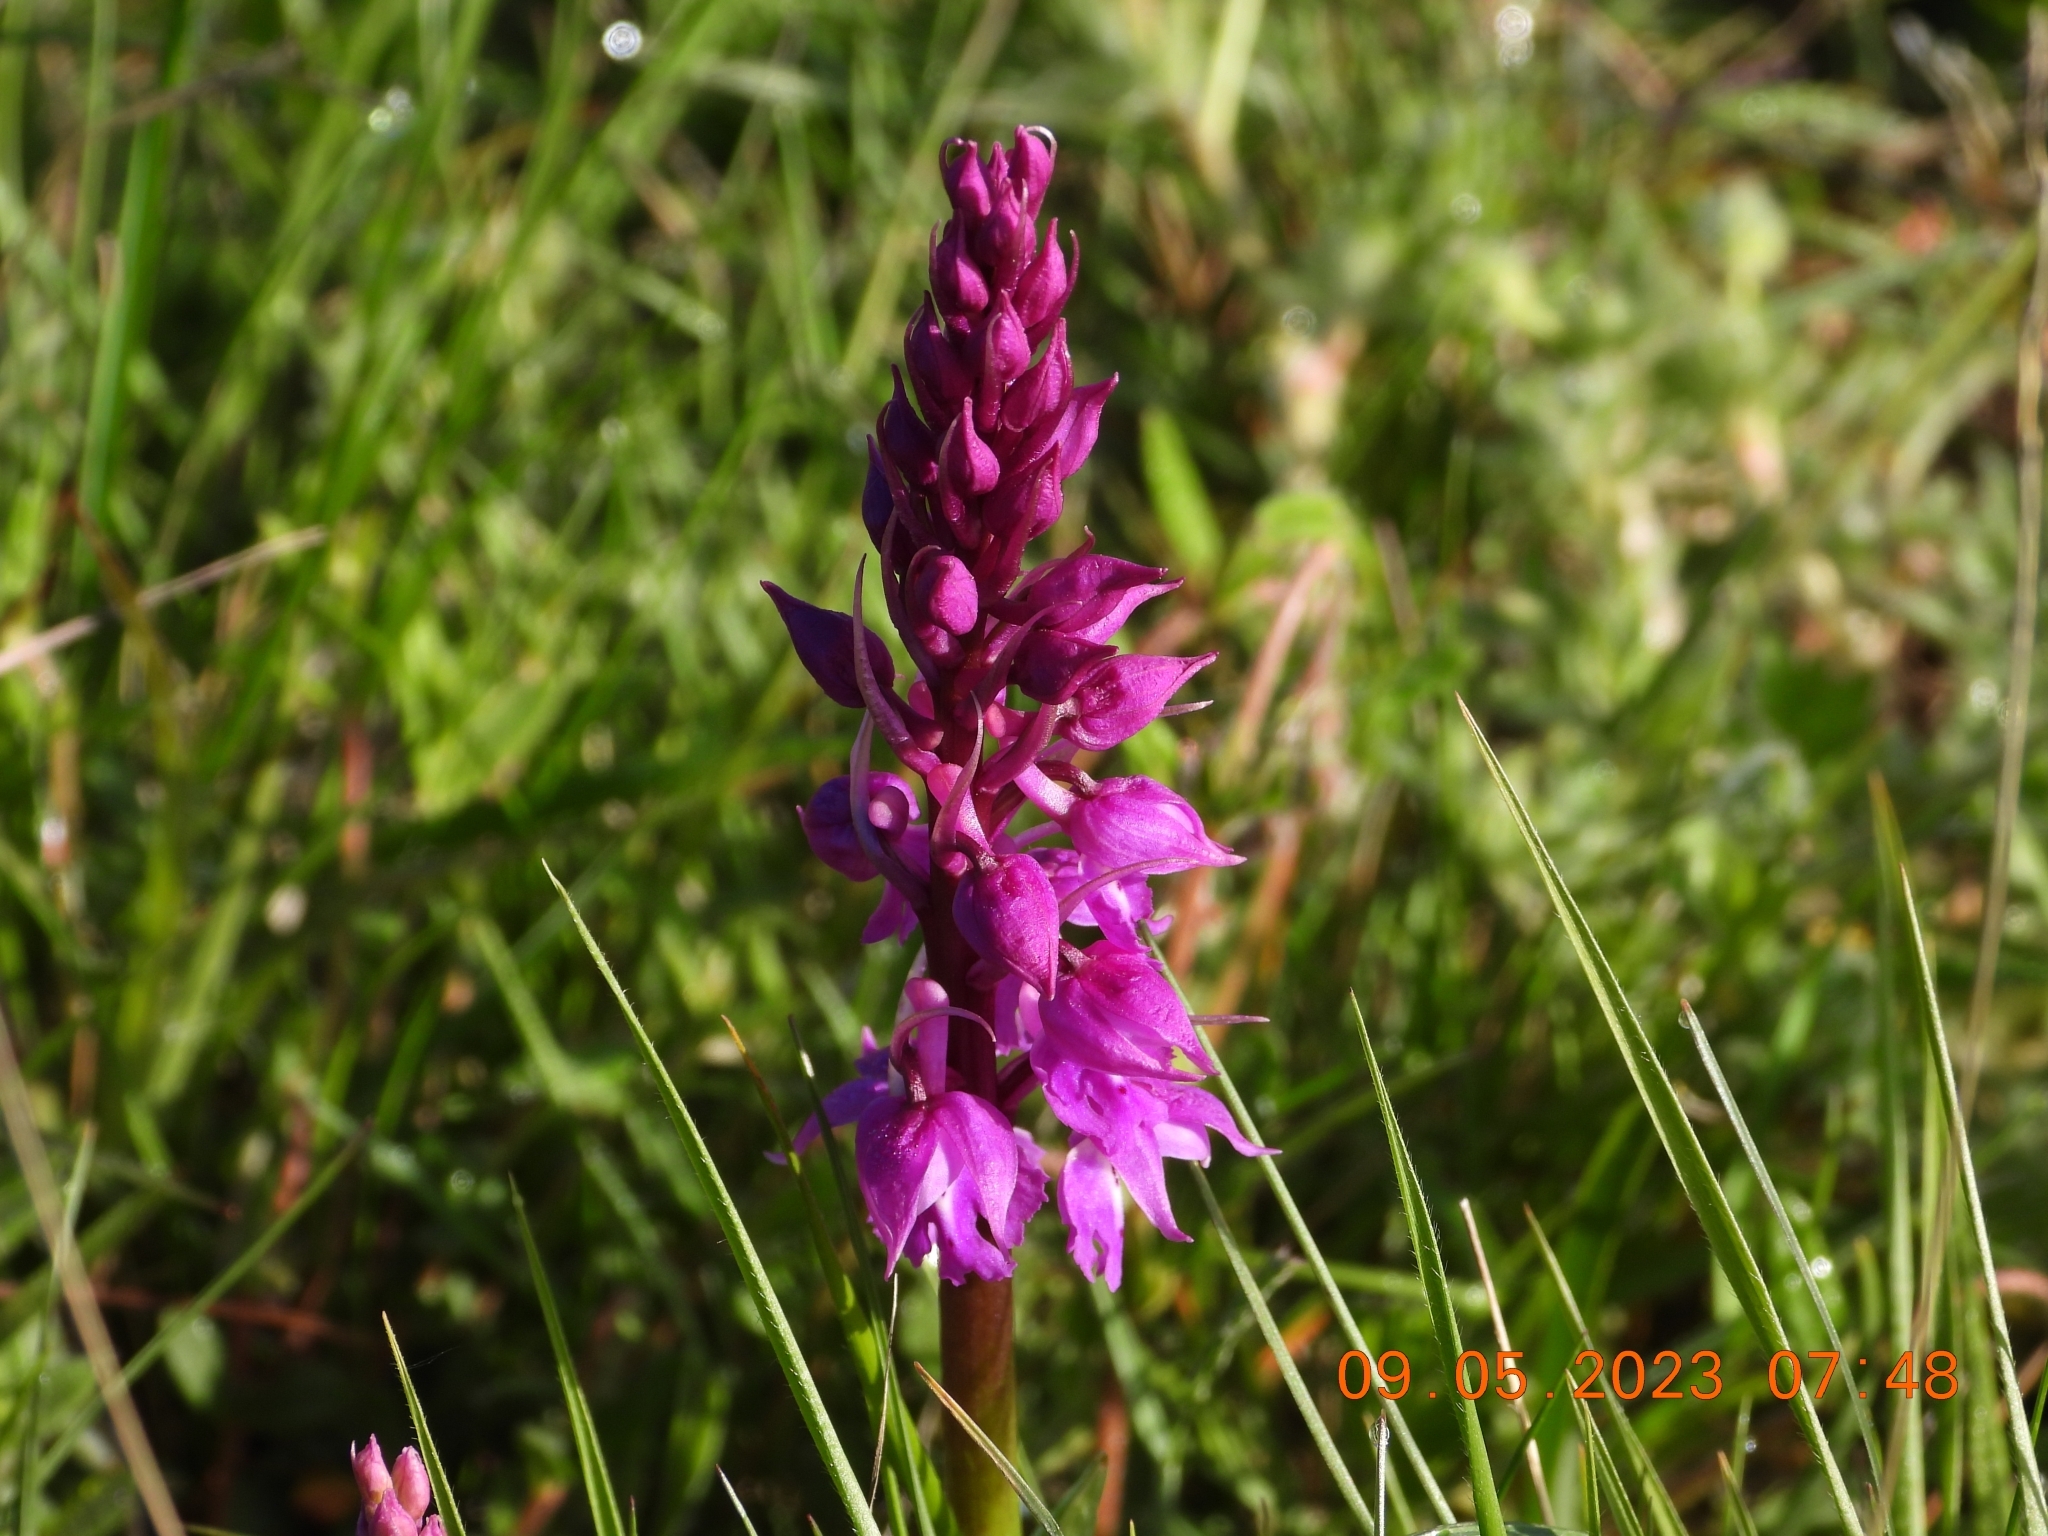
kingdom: Plantae
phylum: Tracheophyta
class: Liliopsida
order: Asparagales
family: Orchidaceae
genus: Orchis
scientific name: Orchis mascula
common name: Early-purple orchid
